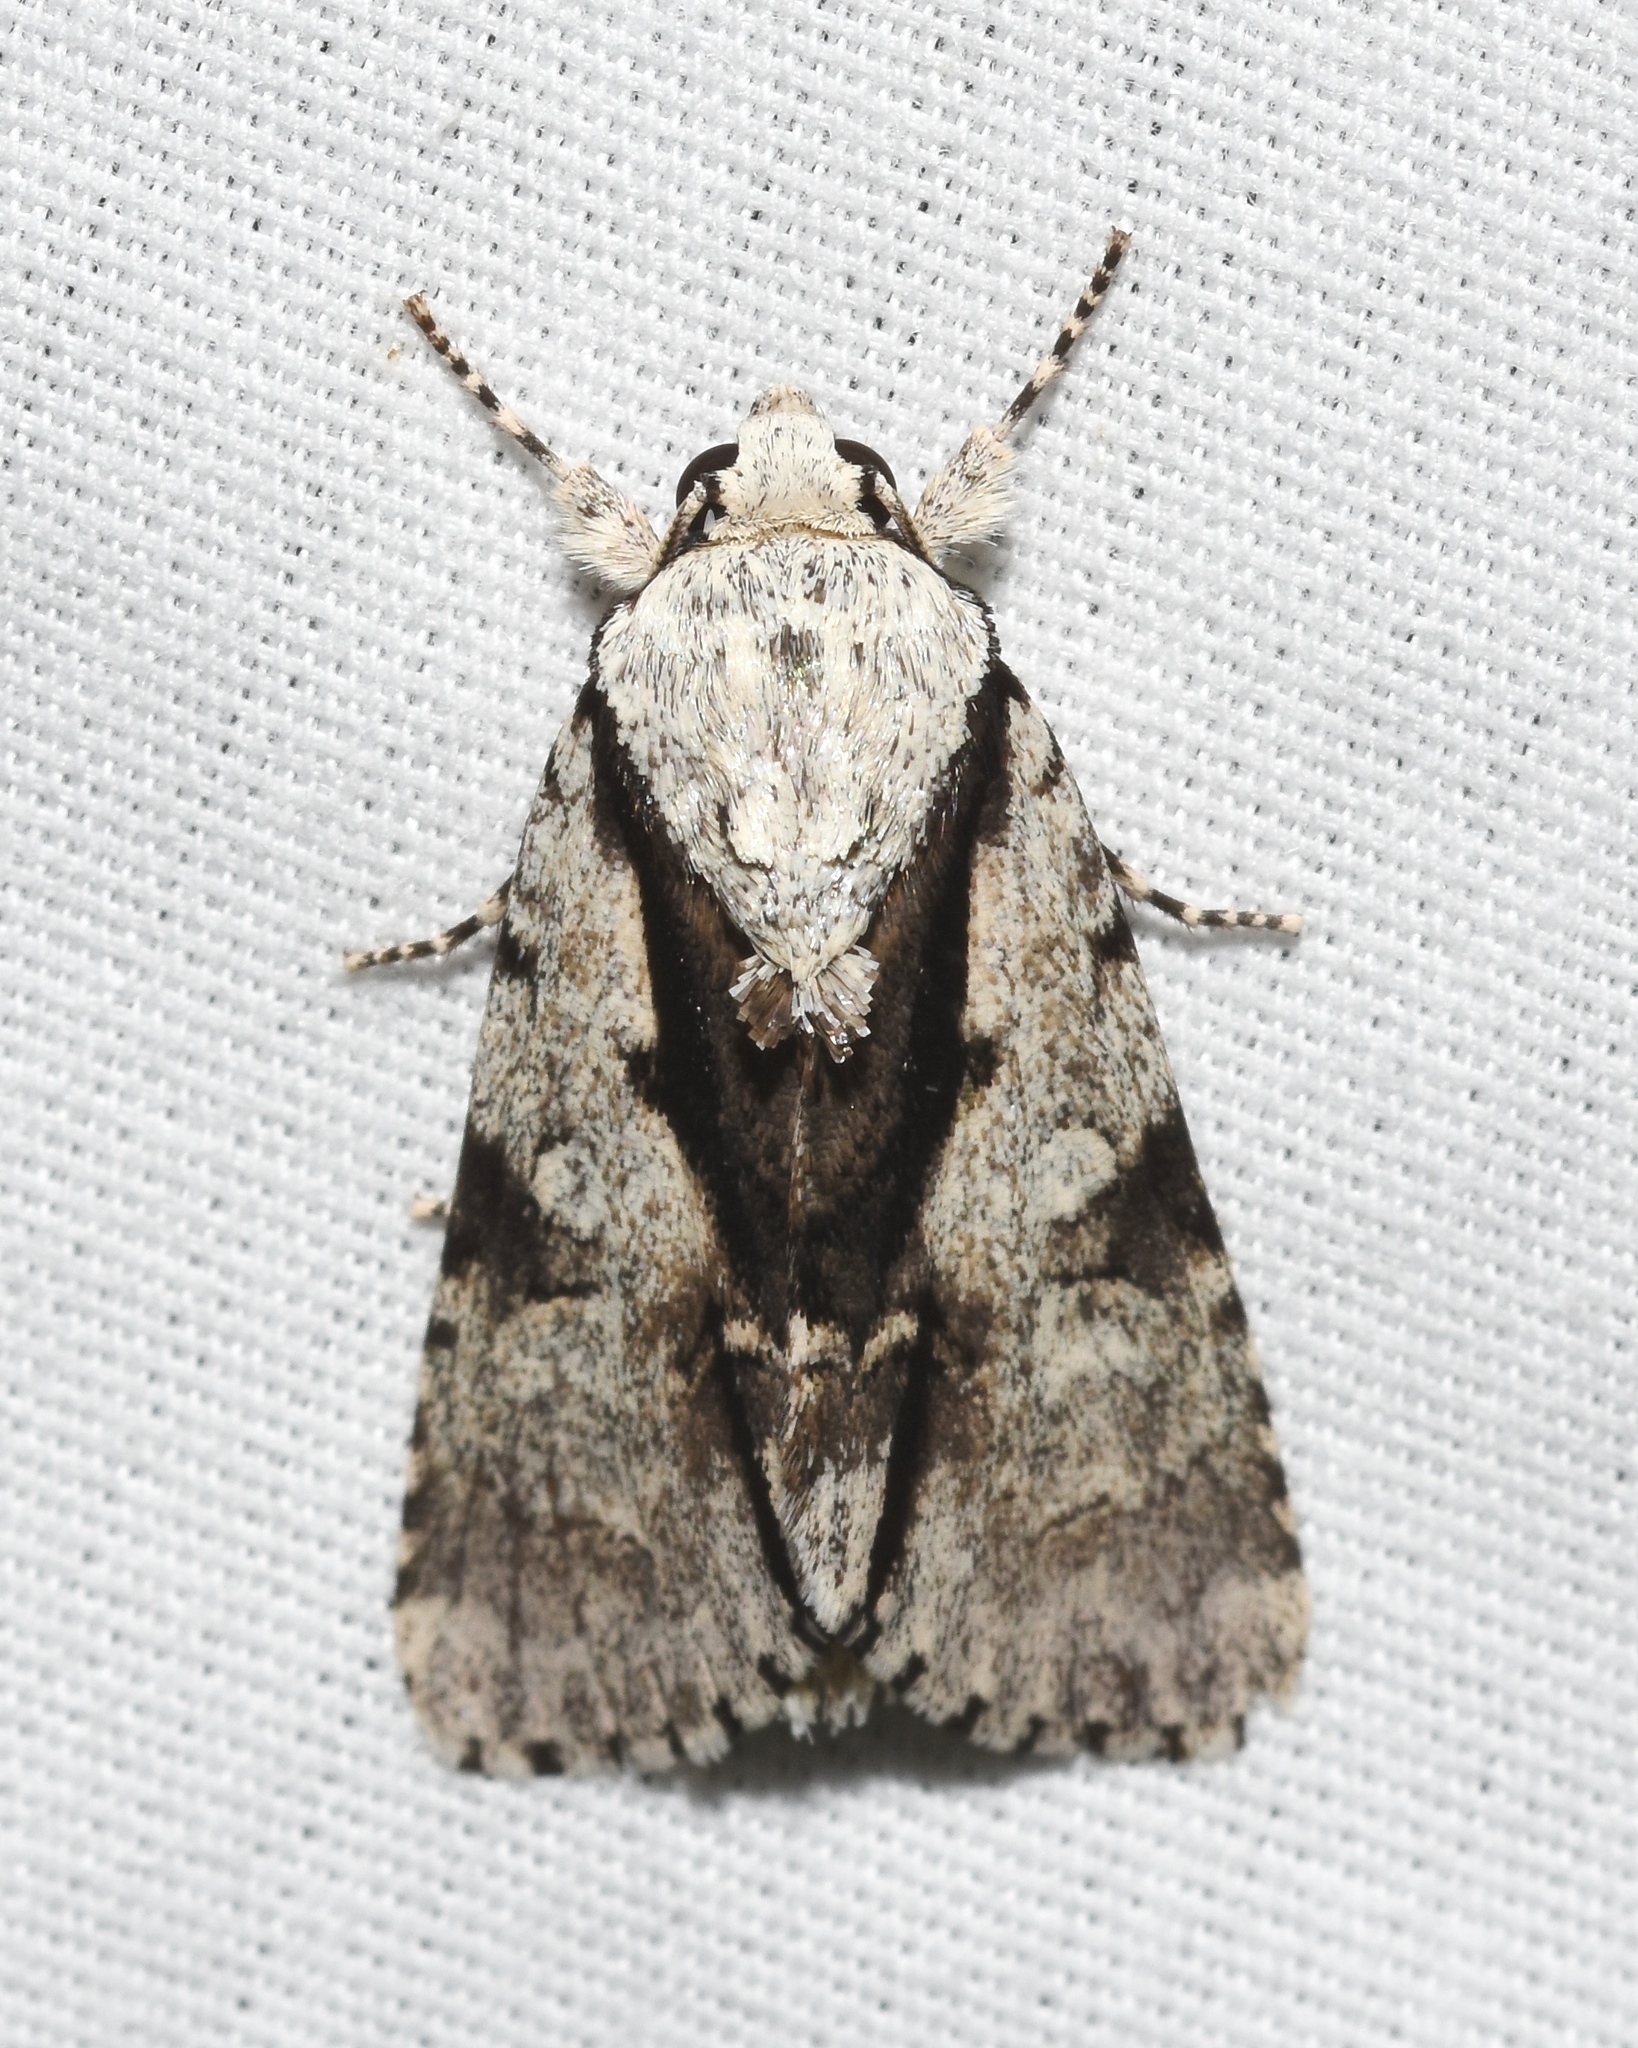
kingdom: Animalia
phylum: Arthropoda
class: Insecta
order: Lepidoptera
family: Noctuidae
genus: Acronicta
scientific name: Acronicta funeralis
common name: Funerary dagger
